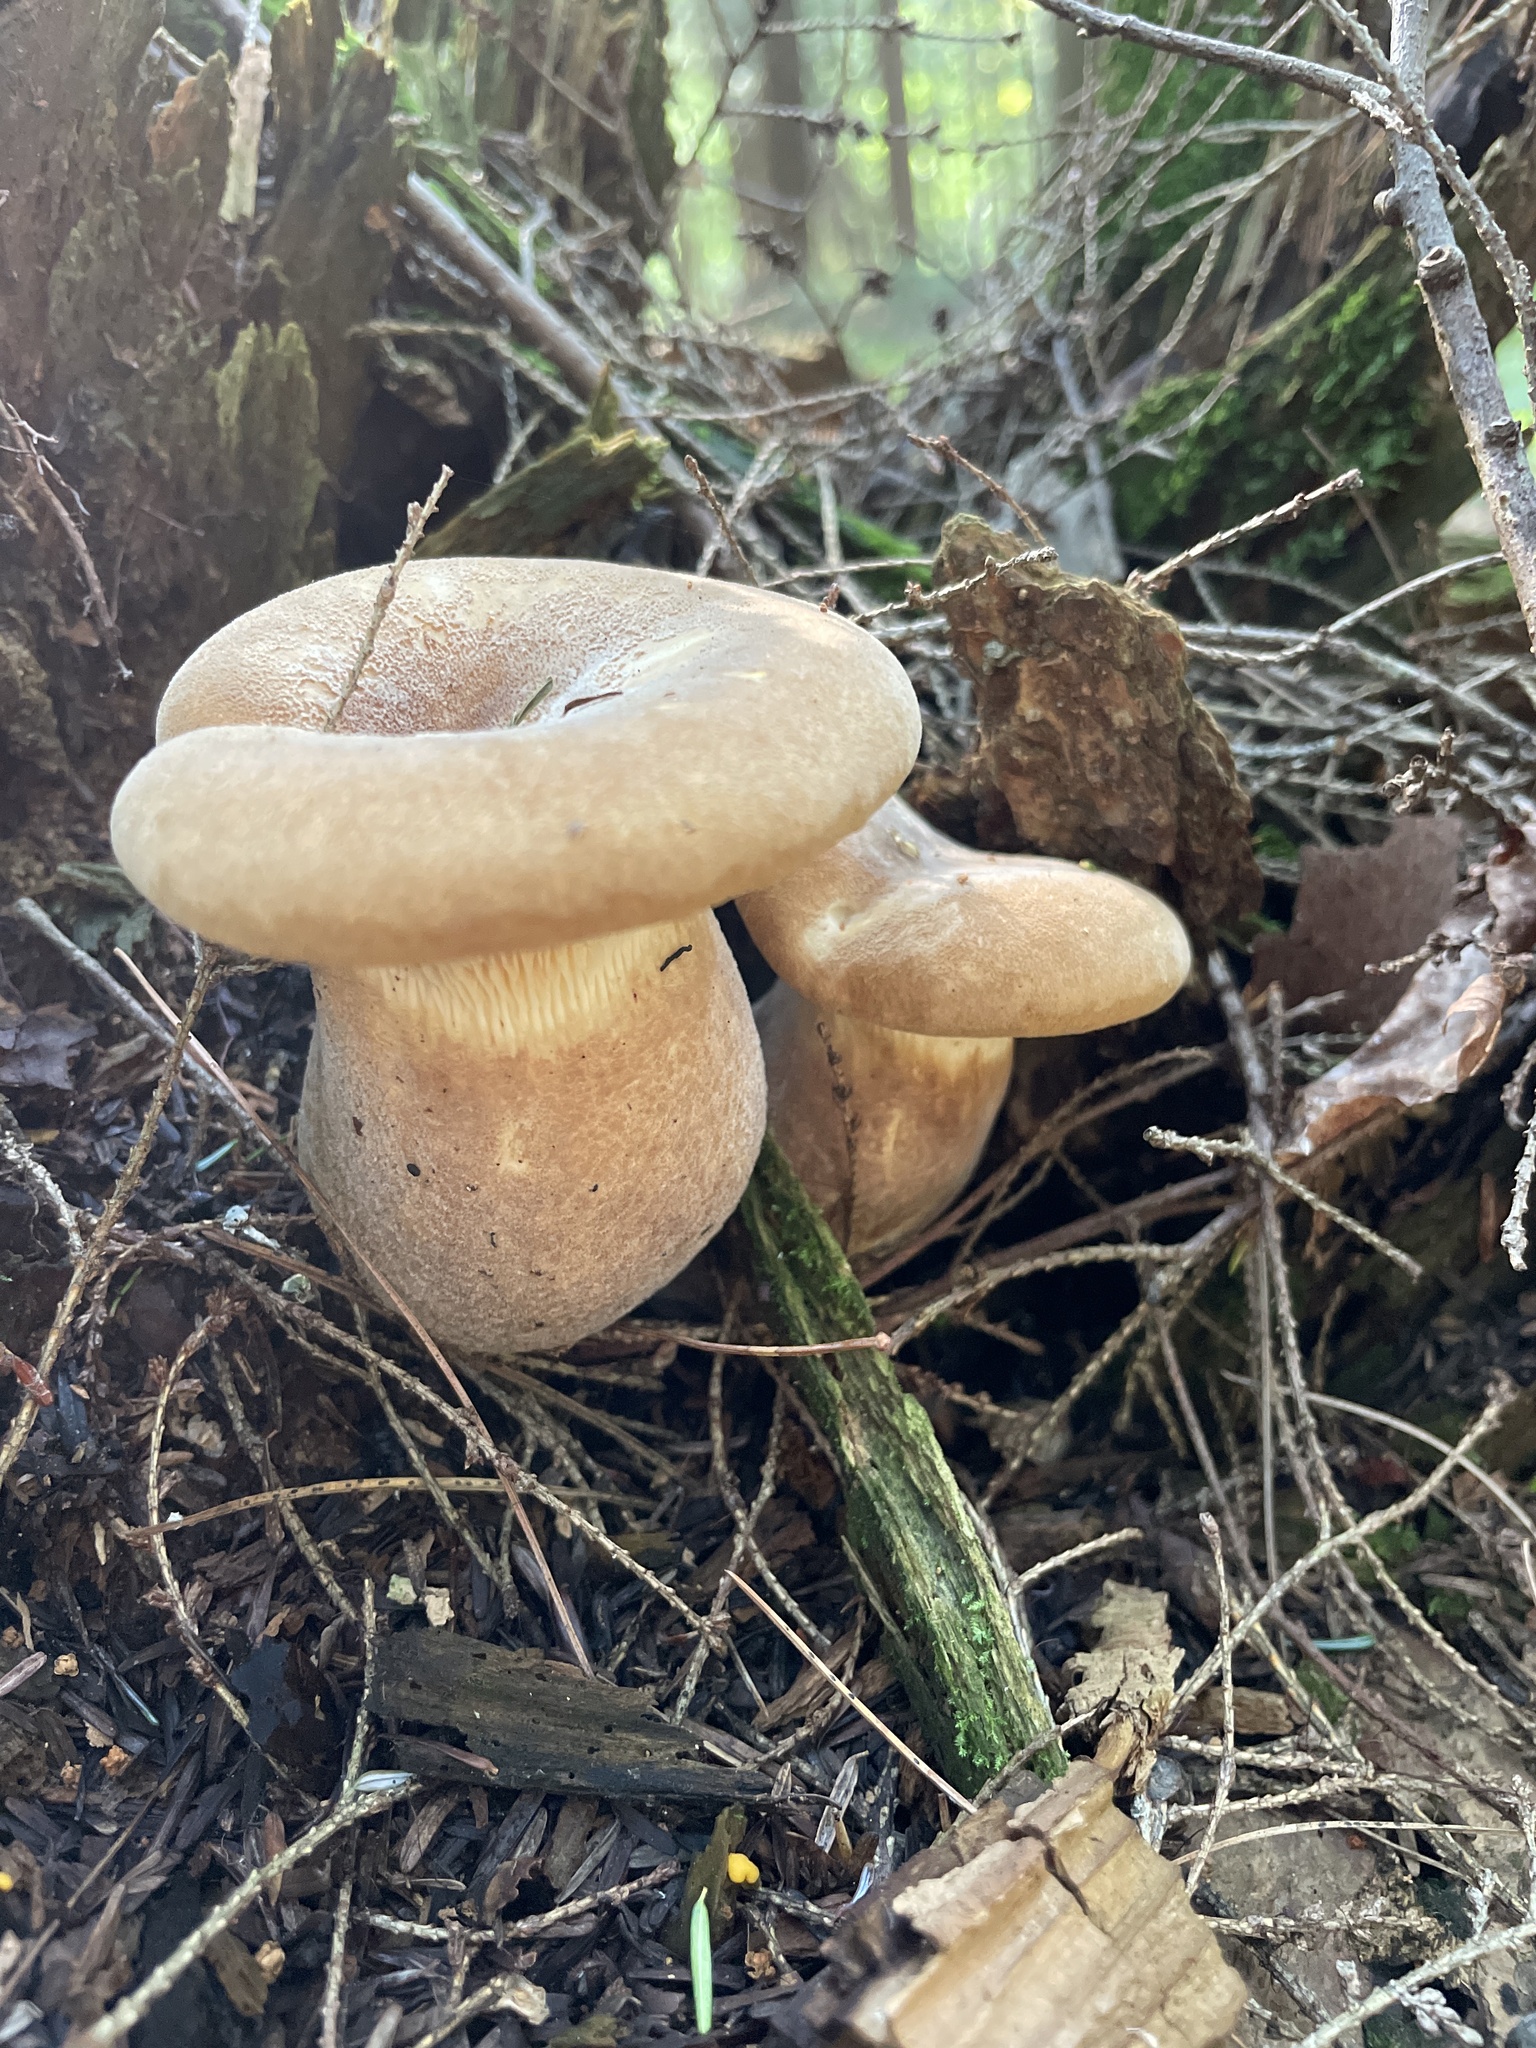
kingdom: Fungi
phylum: Basidiomycota
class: Agaricomycetes
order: Boletales
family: Tapinellaceae
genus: Tapinella
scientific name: Tapinella atrotomentosa
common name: Velvet rollrim
